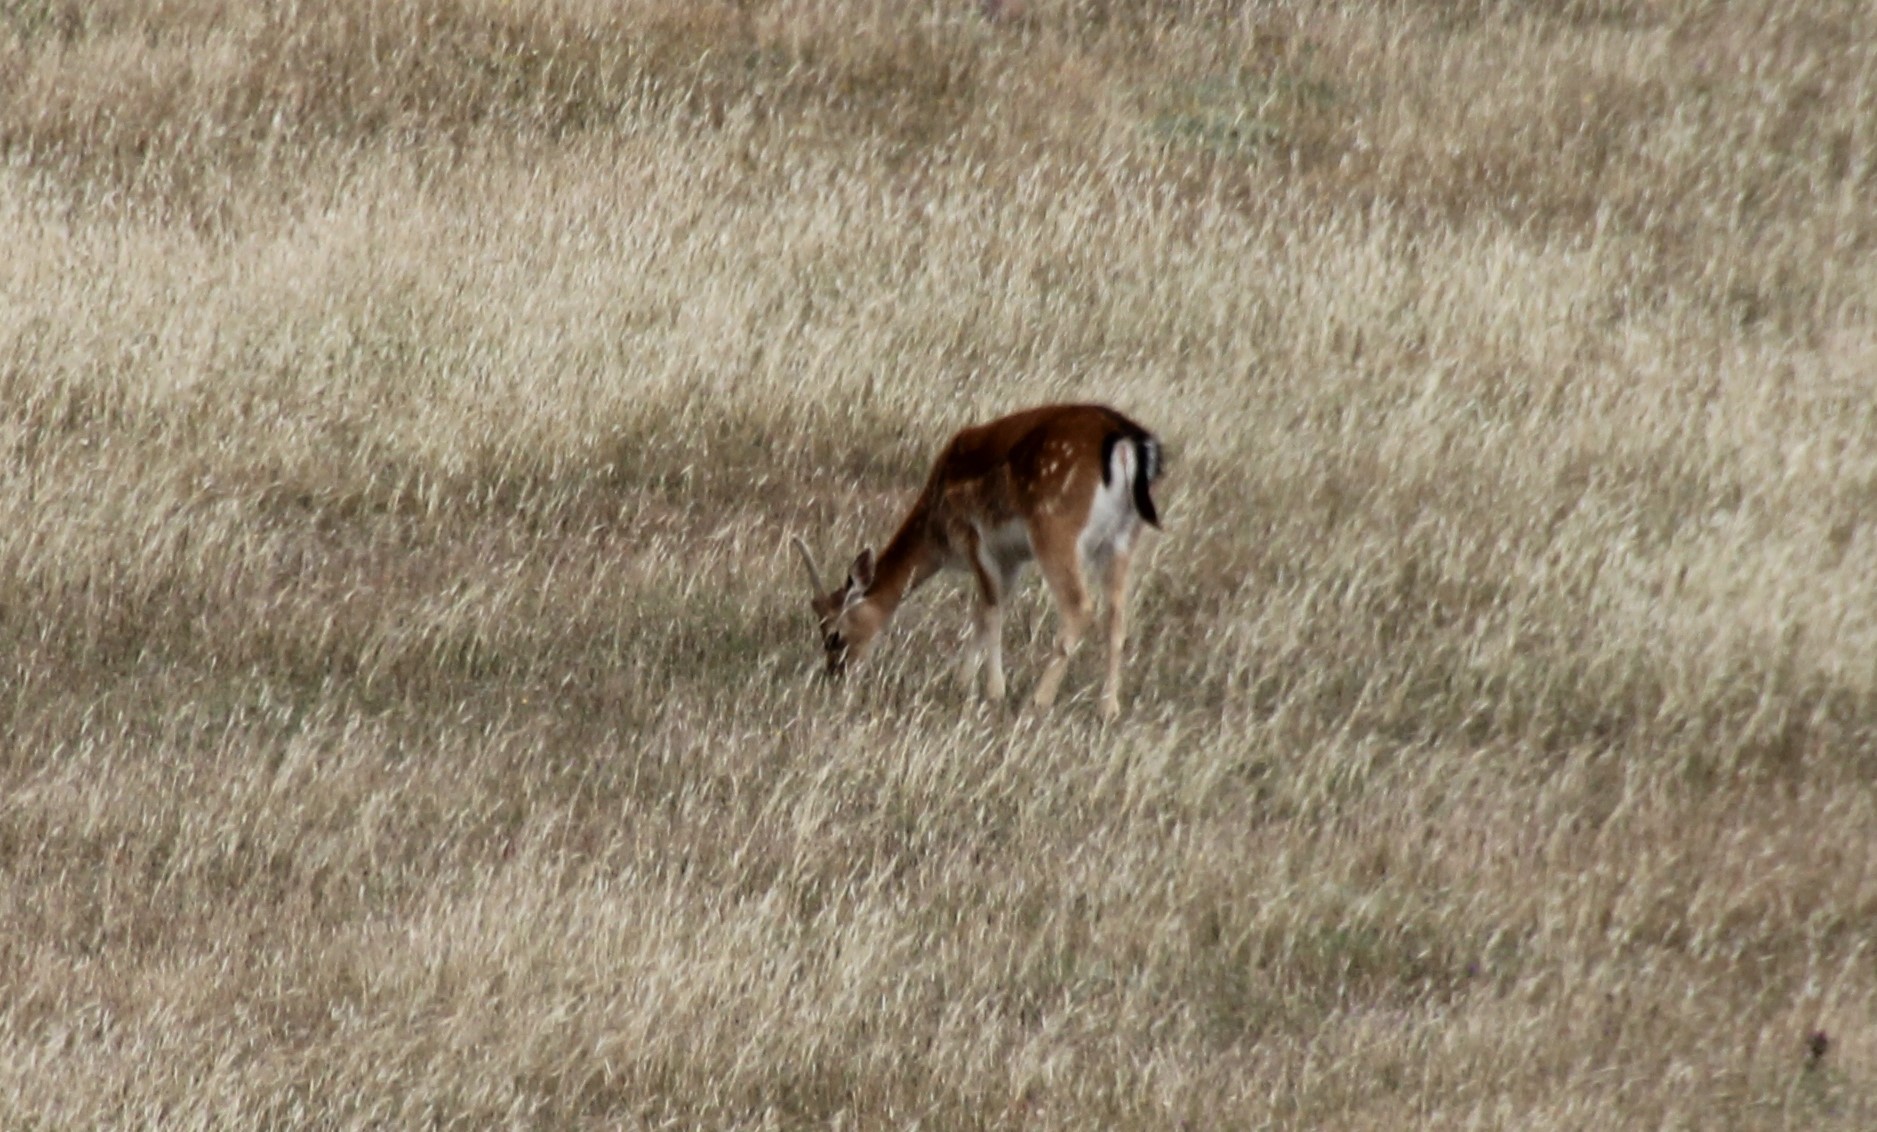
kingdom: Animalia
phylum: Chordata
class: Mammalia
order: Artiodactyla
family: Cervidae
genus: Dama
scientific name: Dama dama
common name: Fallow deer
